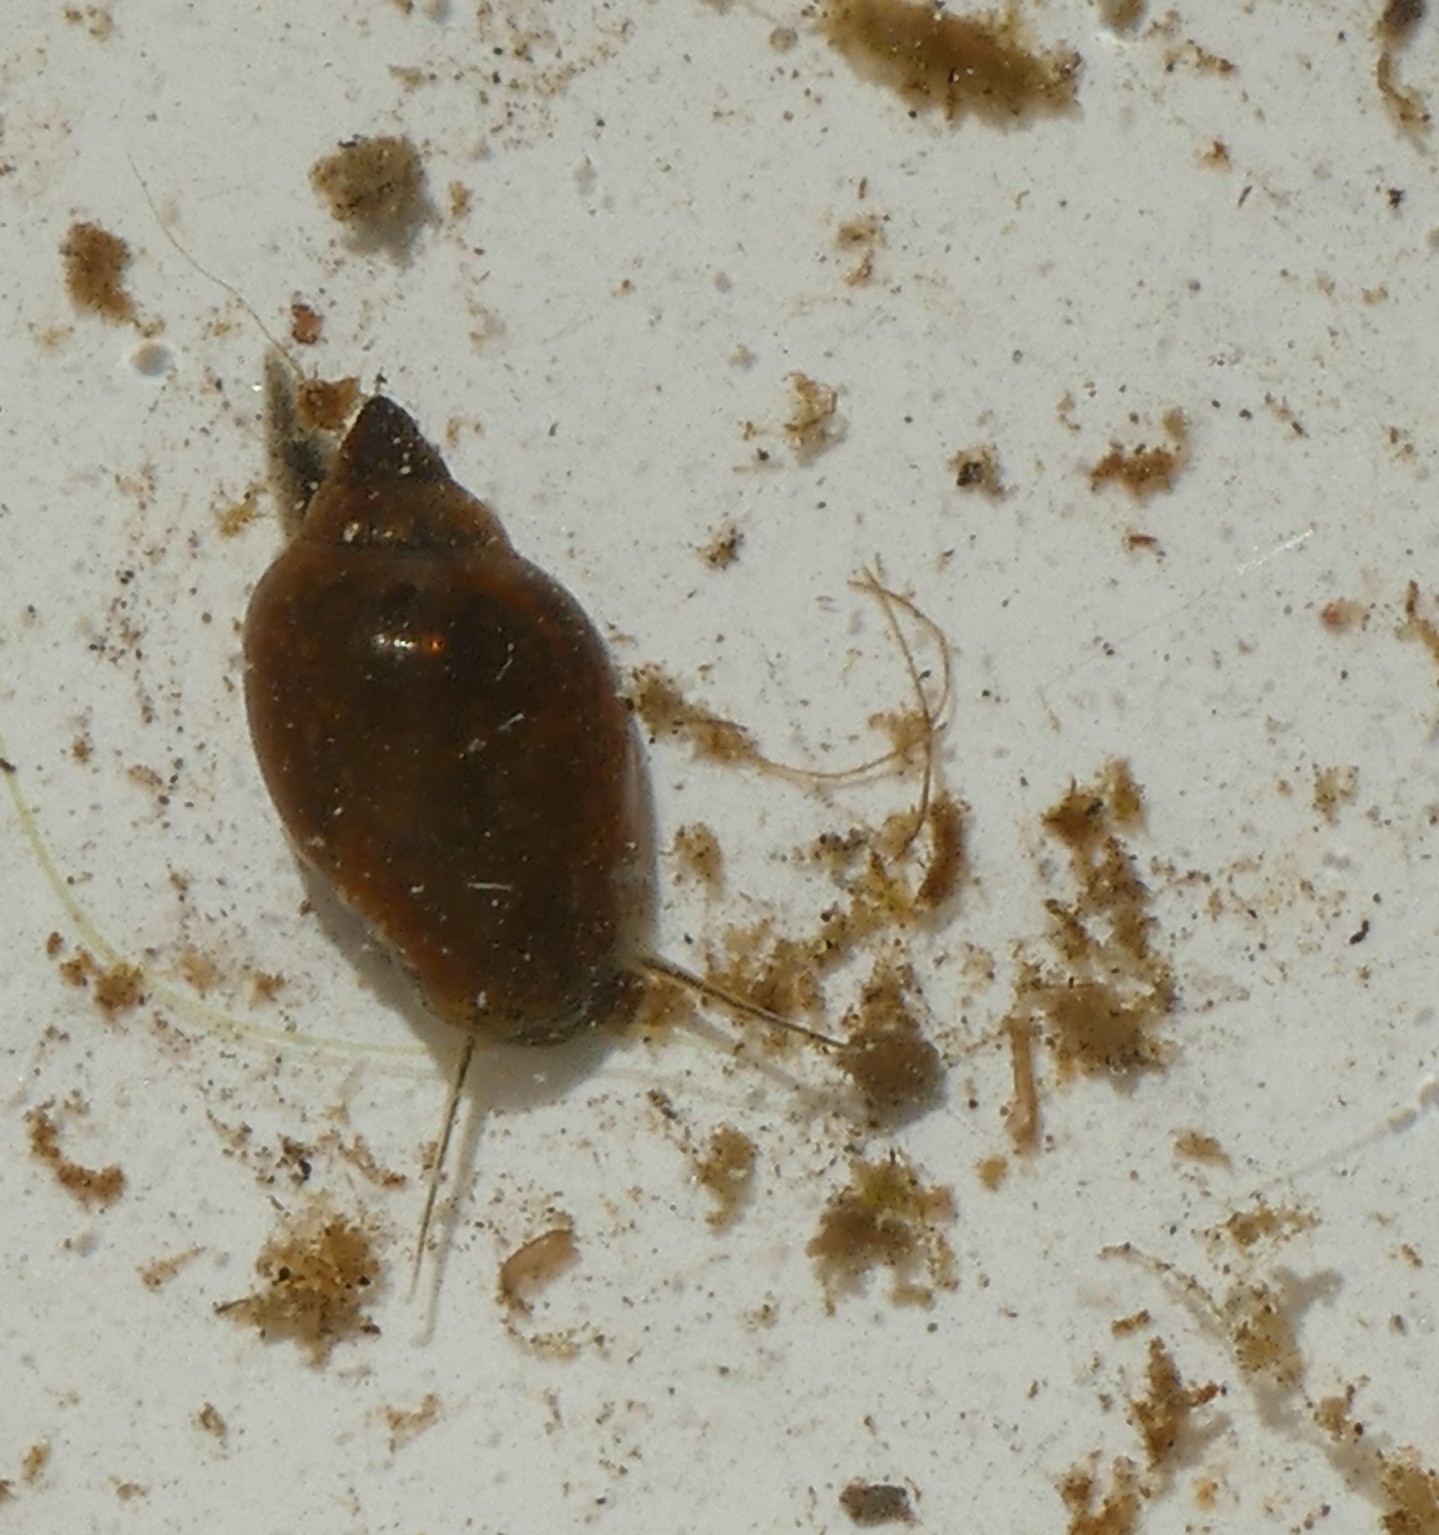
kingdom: Animalia
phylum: Mollusca
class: Gastropoda
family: Physidae
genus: Physella
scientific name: Physella acuta
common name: European physa
